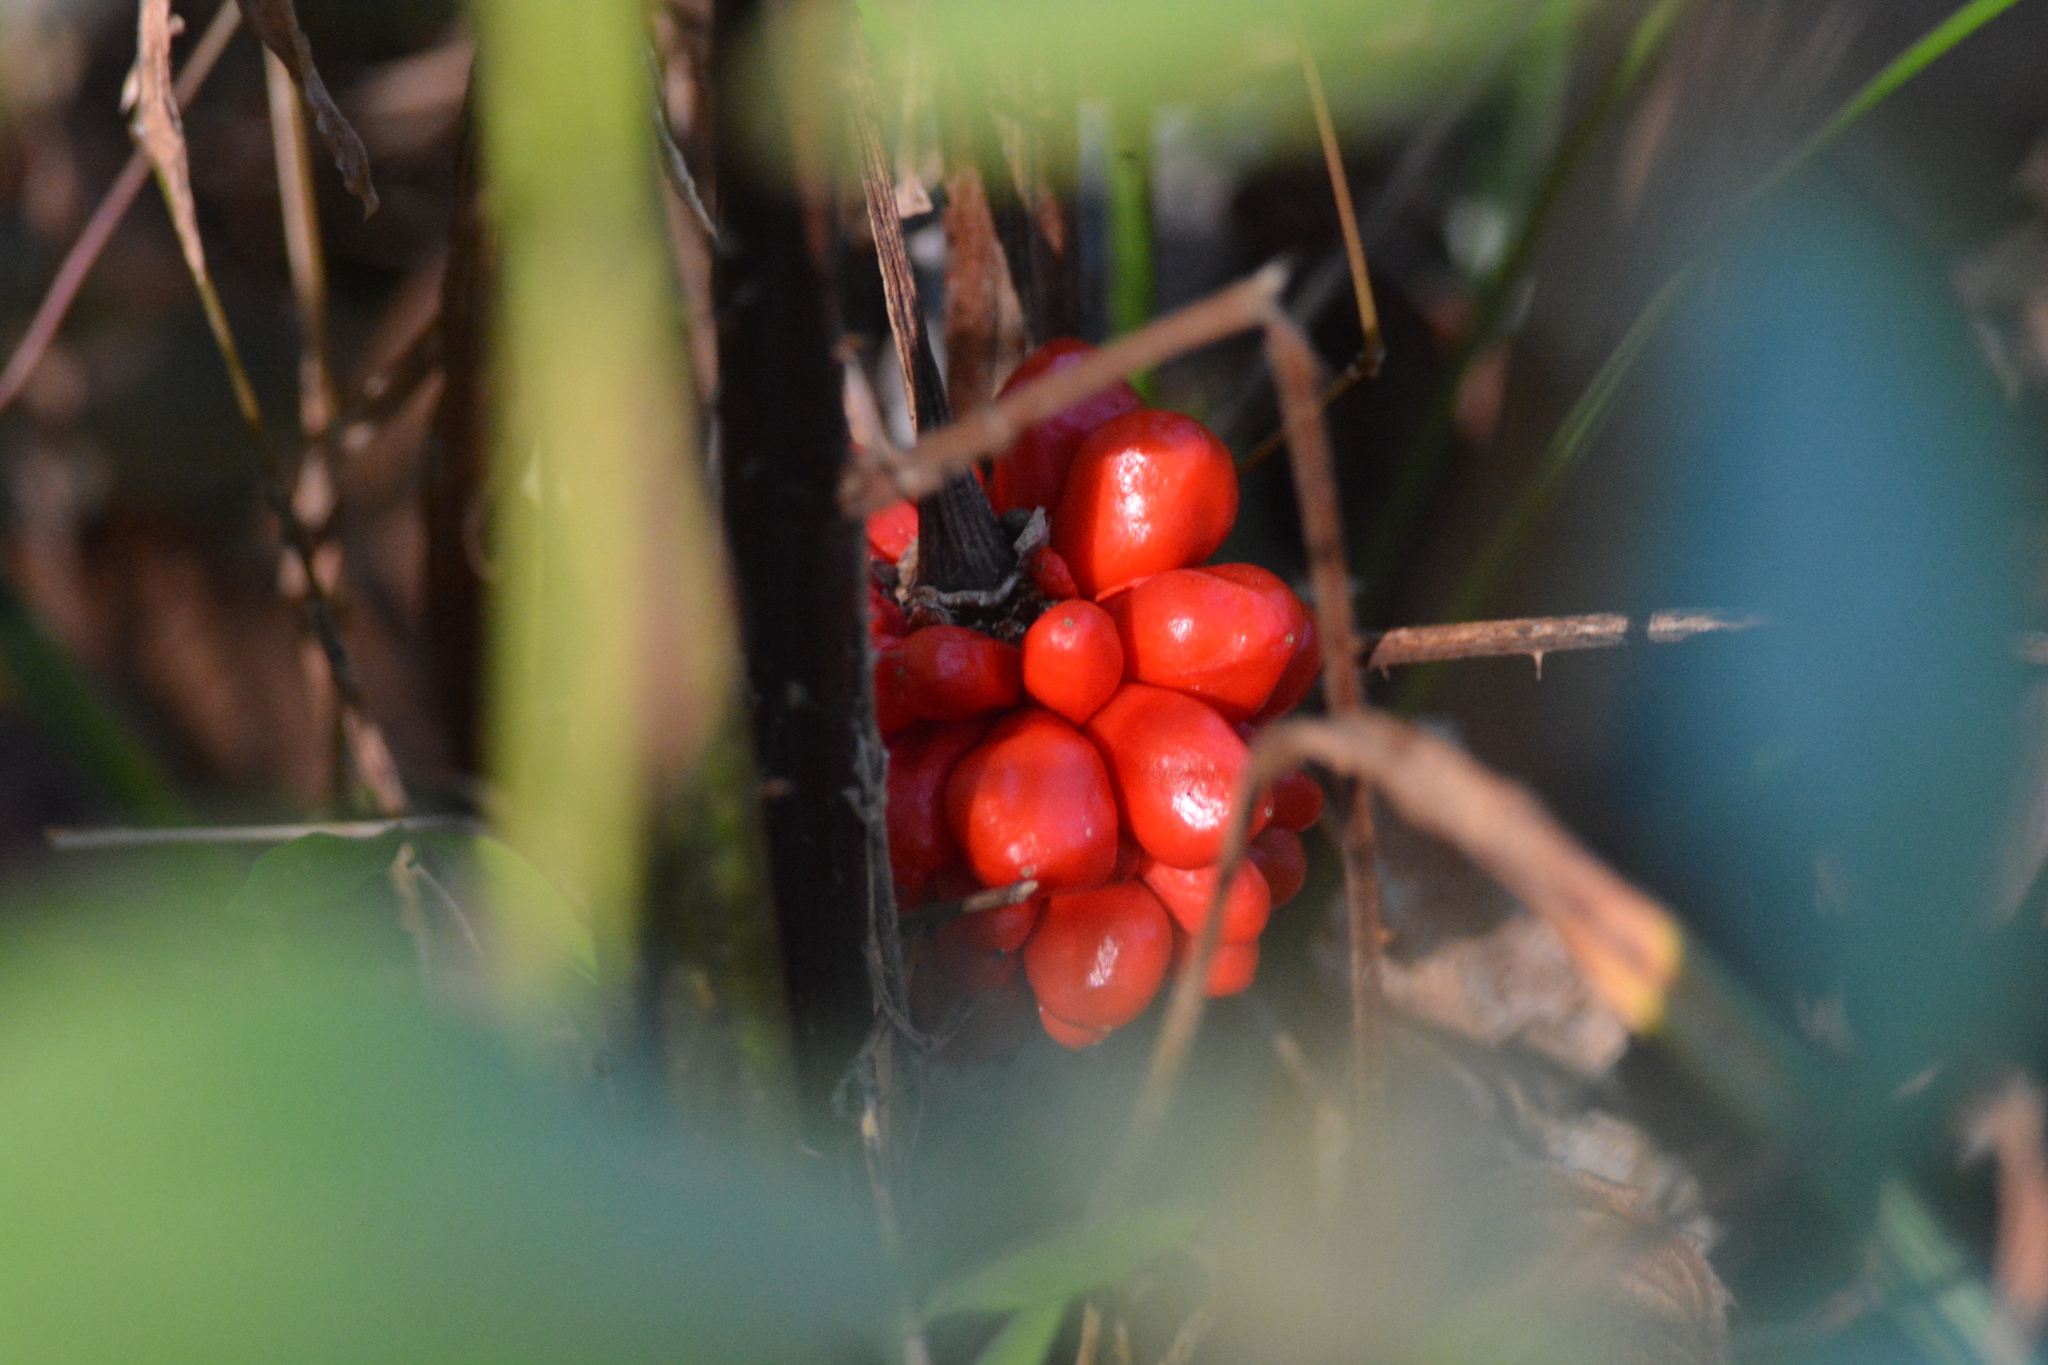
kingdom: Plantae
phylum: Tracheophyta
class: Liliopsida
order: Alismatales
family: Araceae
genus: Arisaema
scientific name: Arisaema triphyllum
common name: Jack-in-the-pulpit
